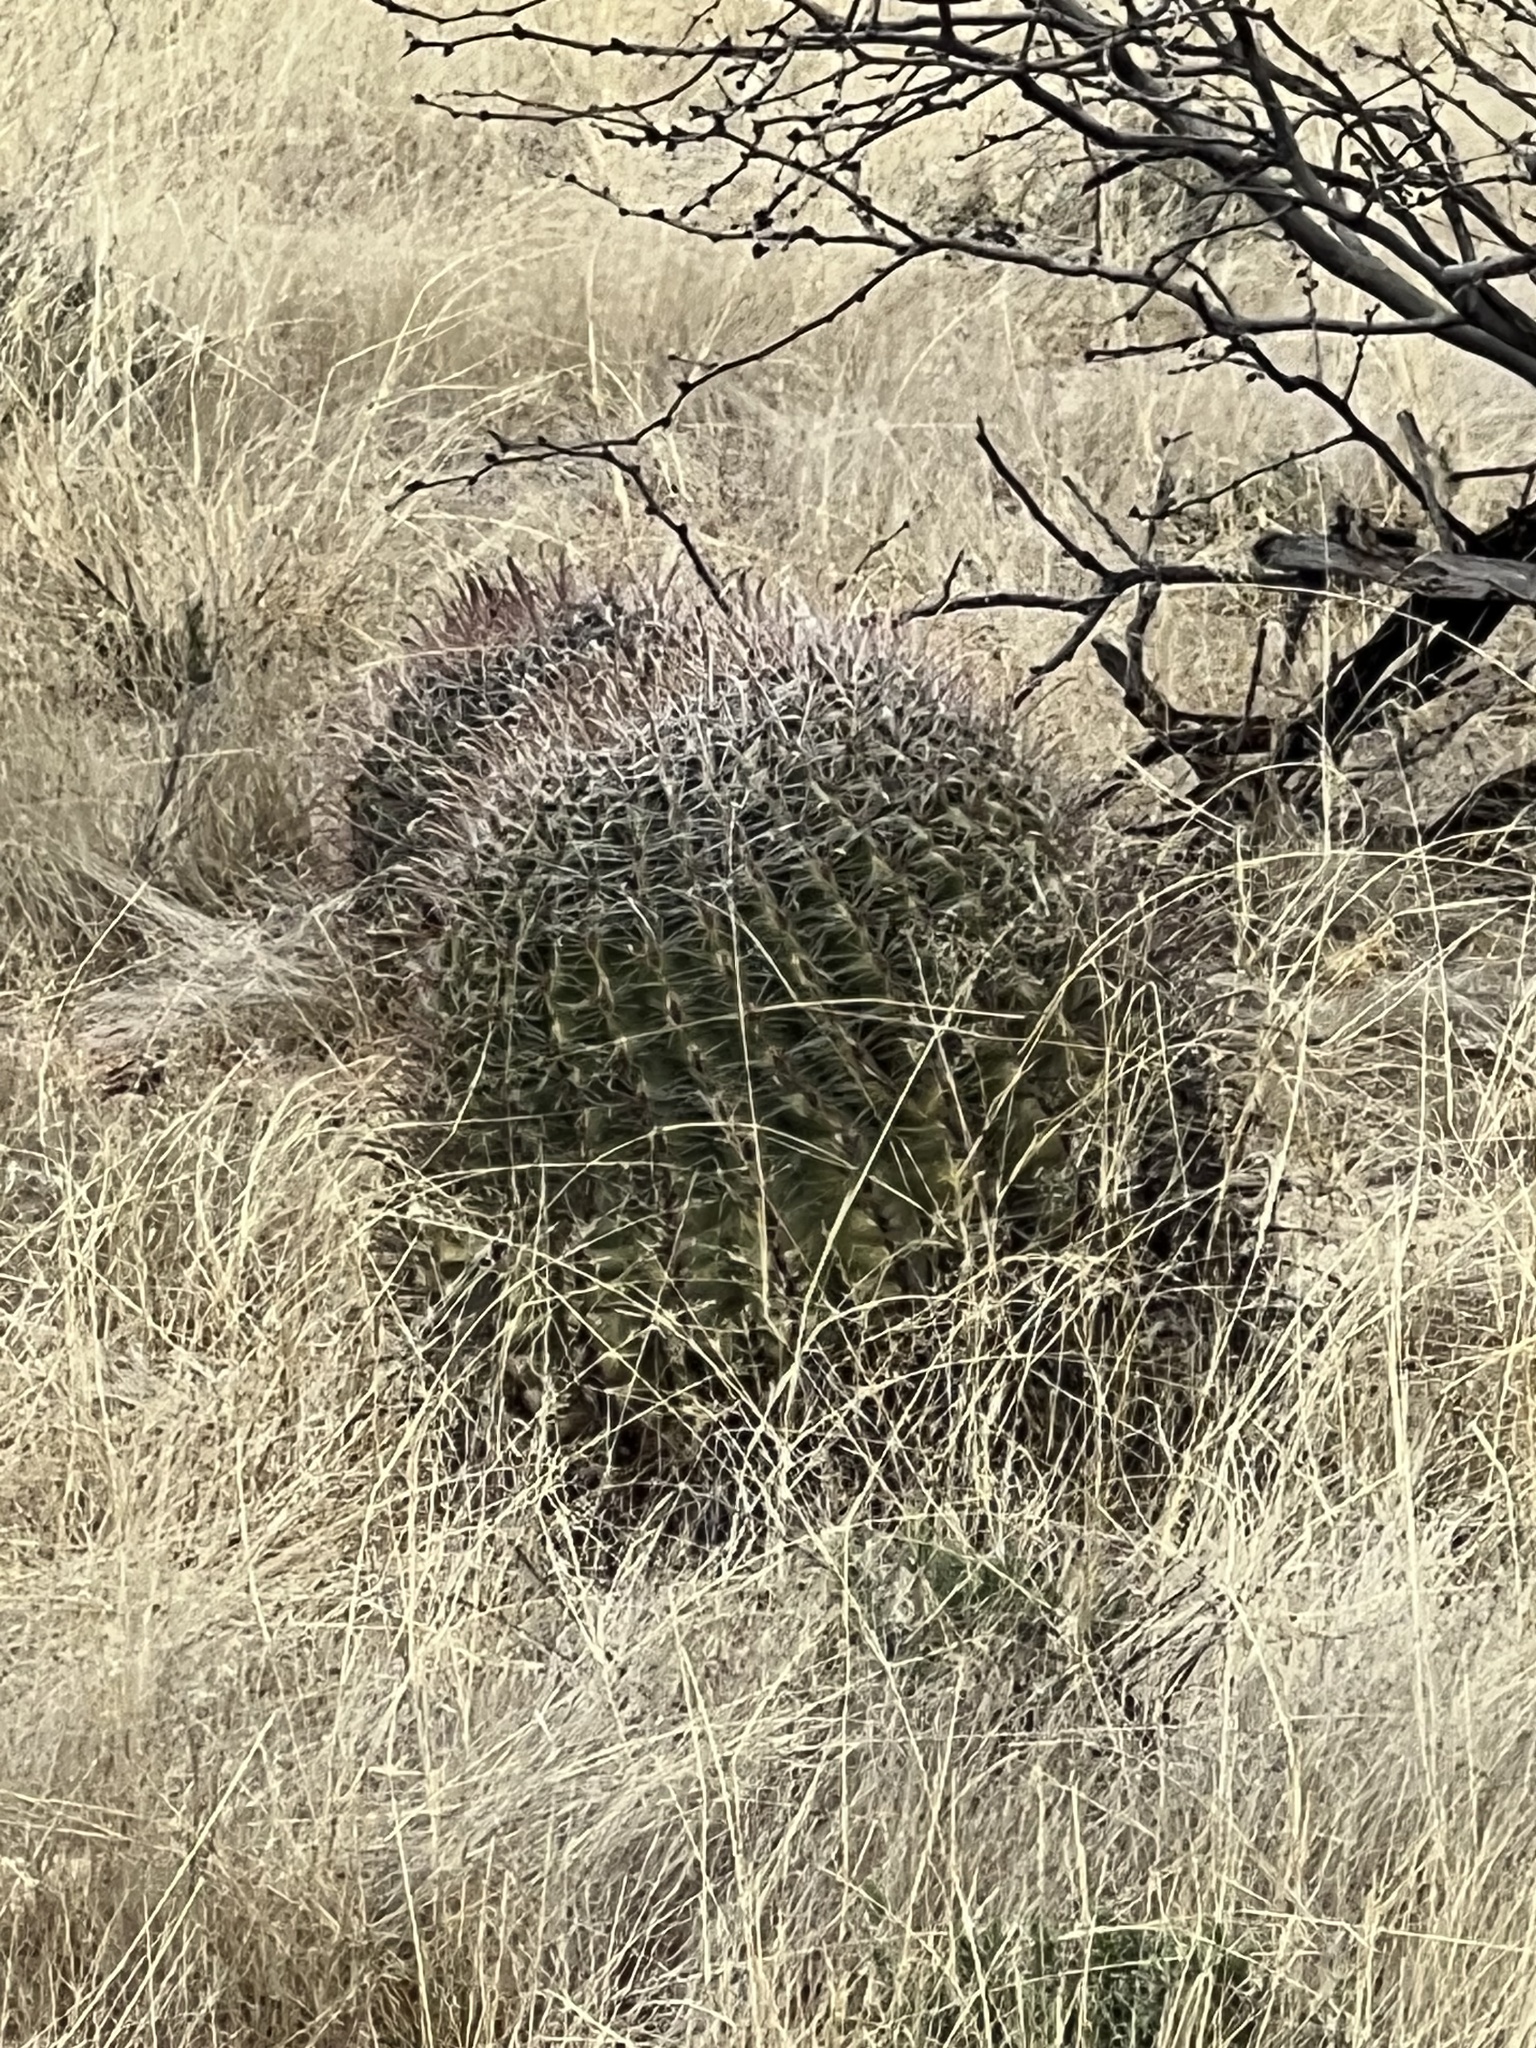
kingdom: Plantae
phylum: Tracheophyta
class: Magnoliopsida
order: Caryophyllales
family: Cactaceae
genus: Ferocactus
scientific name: Ferocactus wislizeni
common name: Candy barrel cactus
